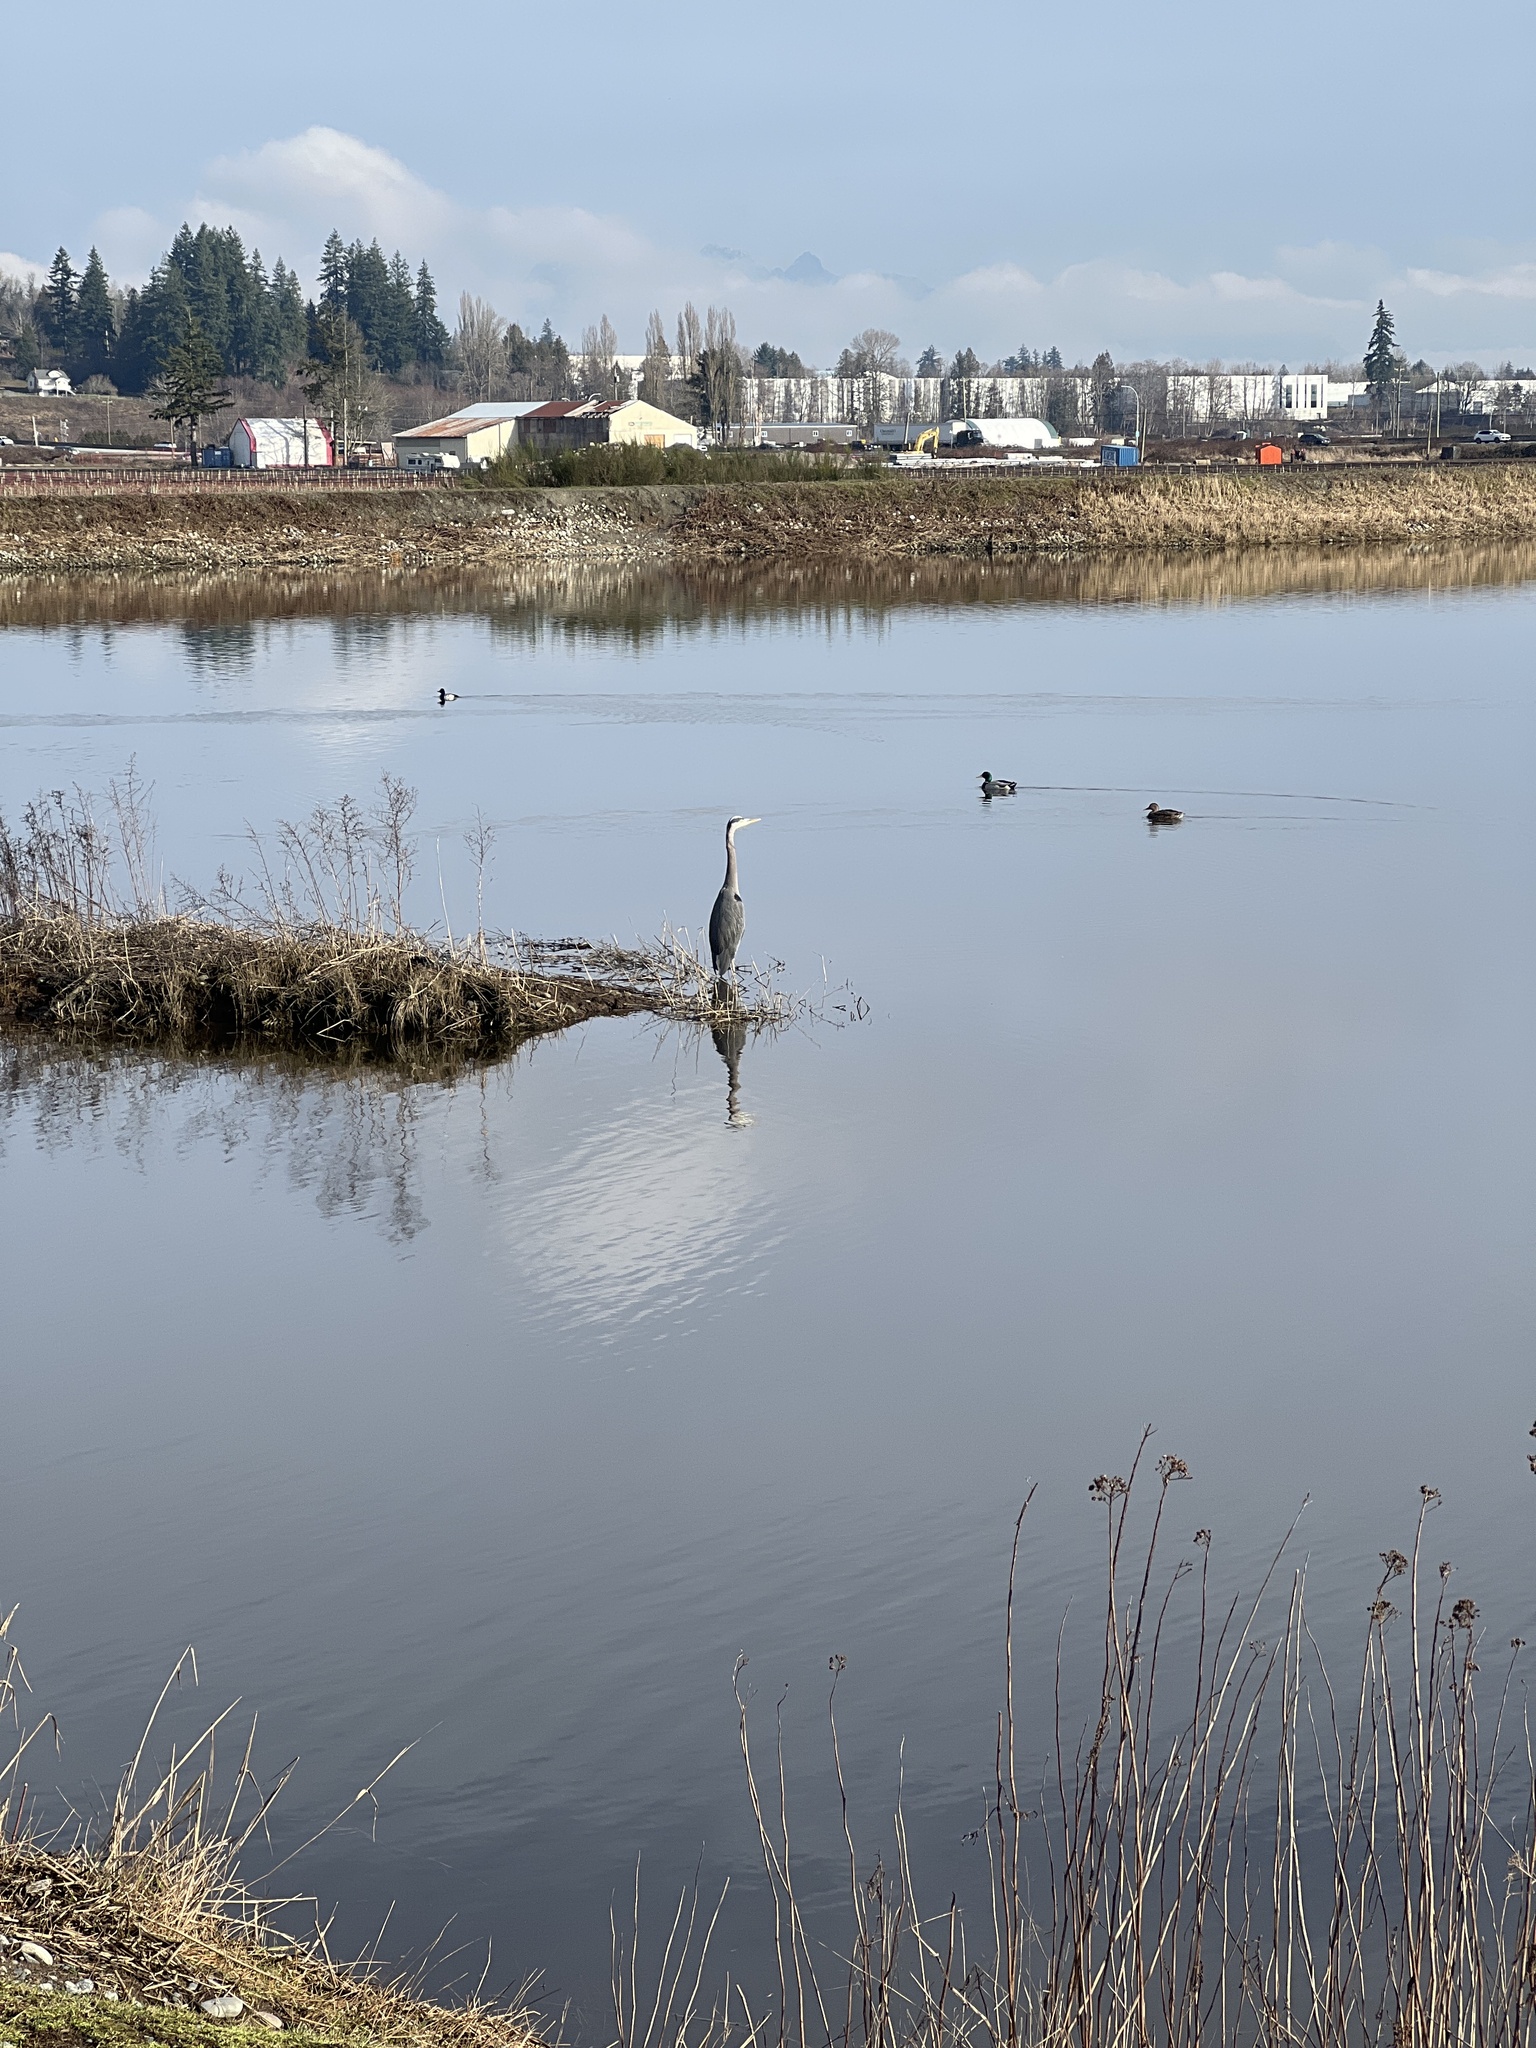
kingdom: Animalia
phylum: Chordata
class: Aves
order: Pelecaniformes
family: Ardeidae
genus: Ardea
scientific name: Ardea herodias
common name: Great blue heron
